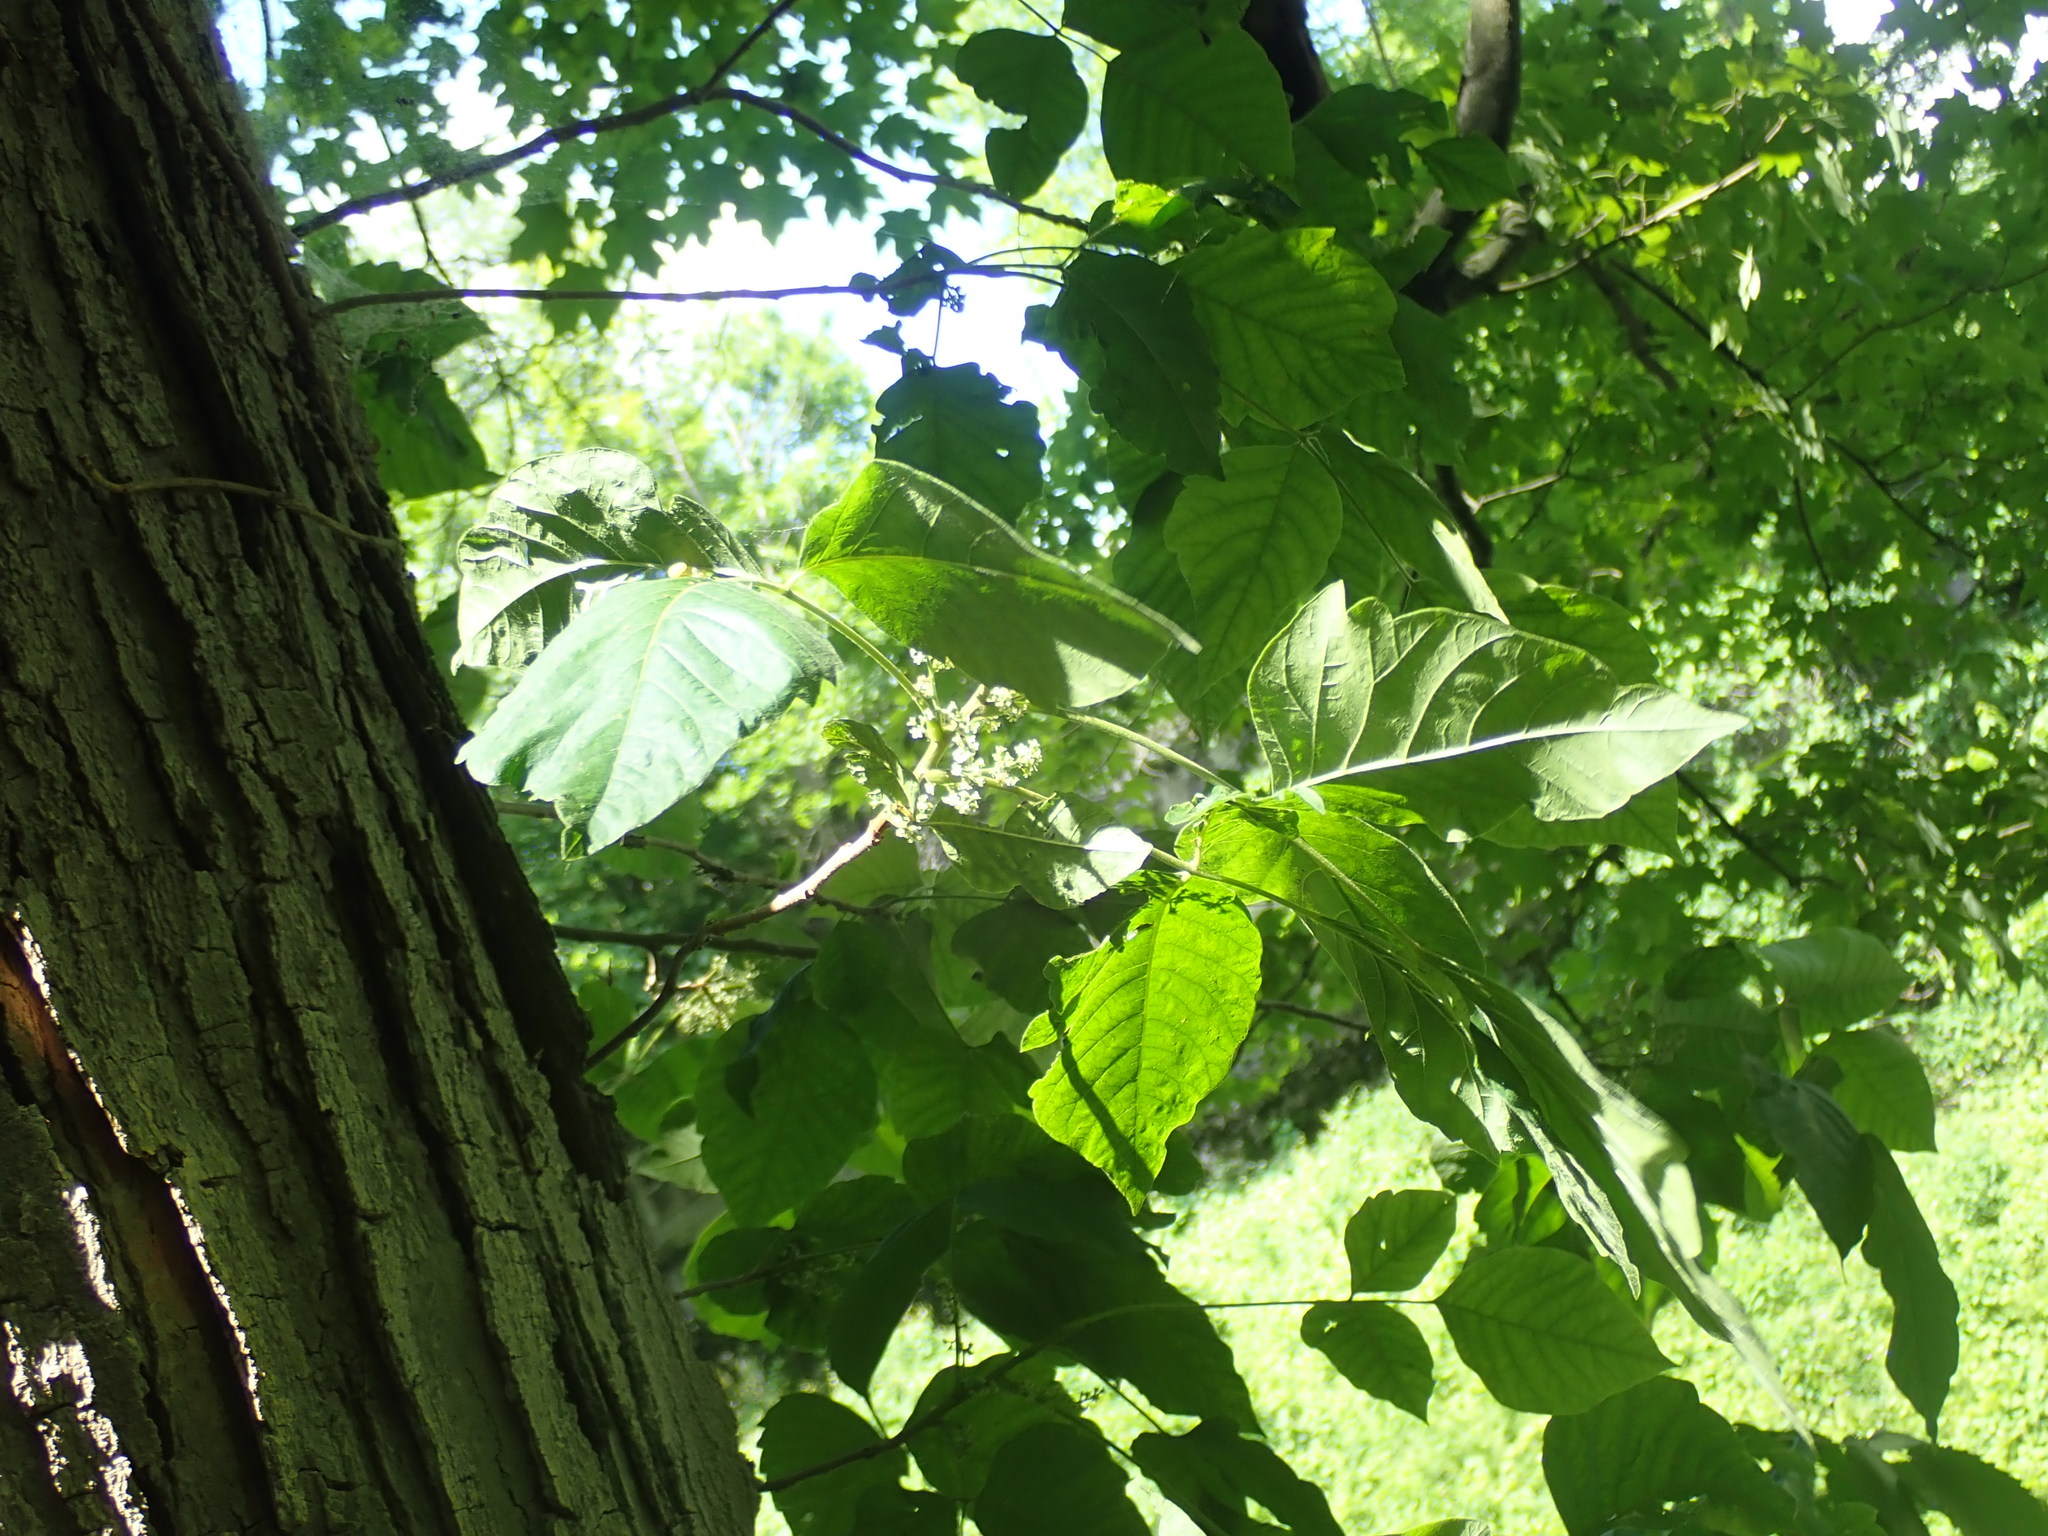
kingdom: Plantae
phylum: Tracheophyta
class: Magnoliopsida
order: Sapindales
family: Anacardiaceae
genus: Toxicodendron
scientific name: Toxicodendron radicans
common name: Poison ivy
